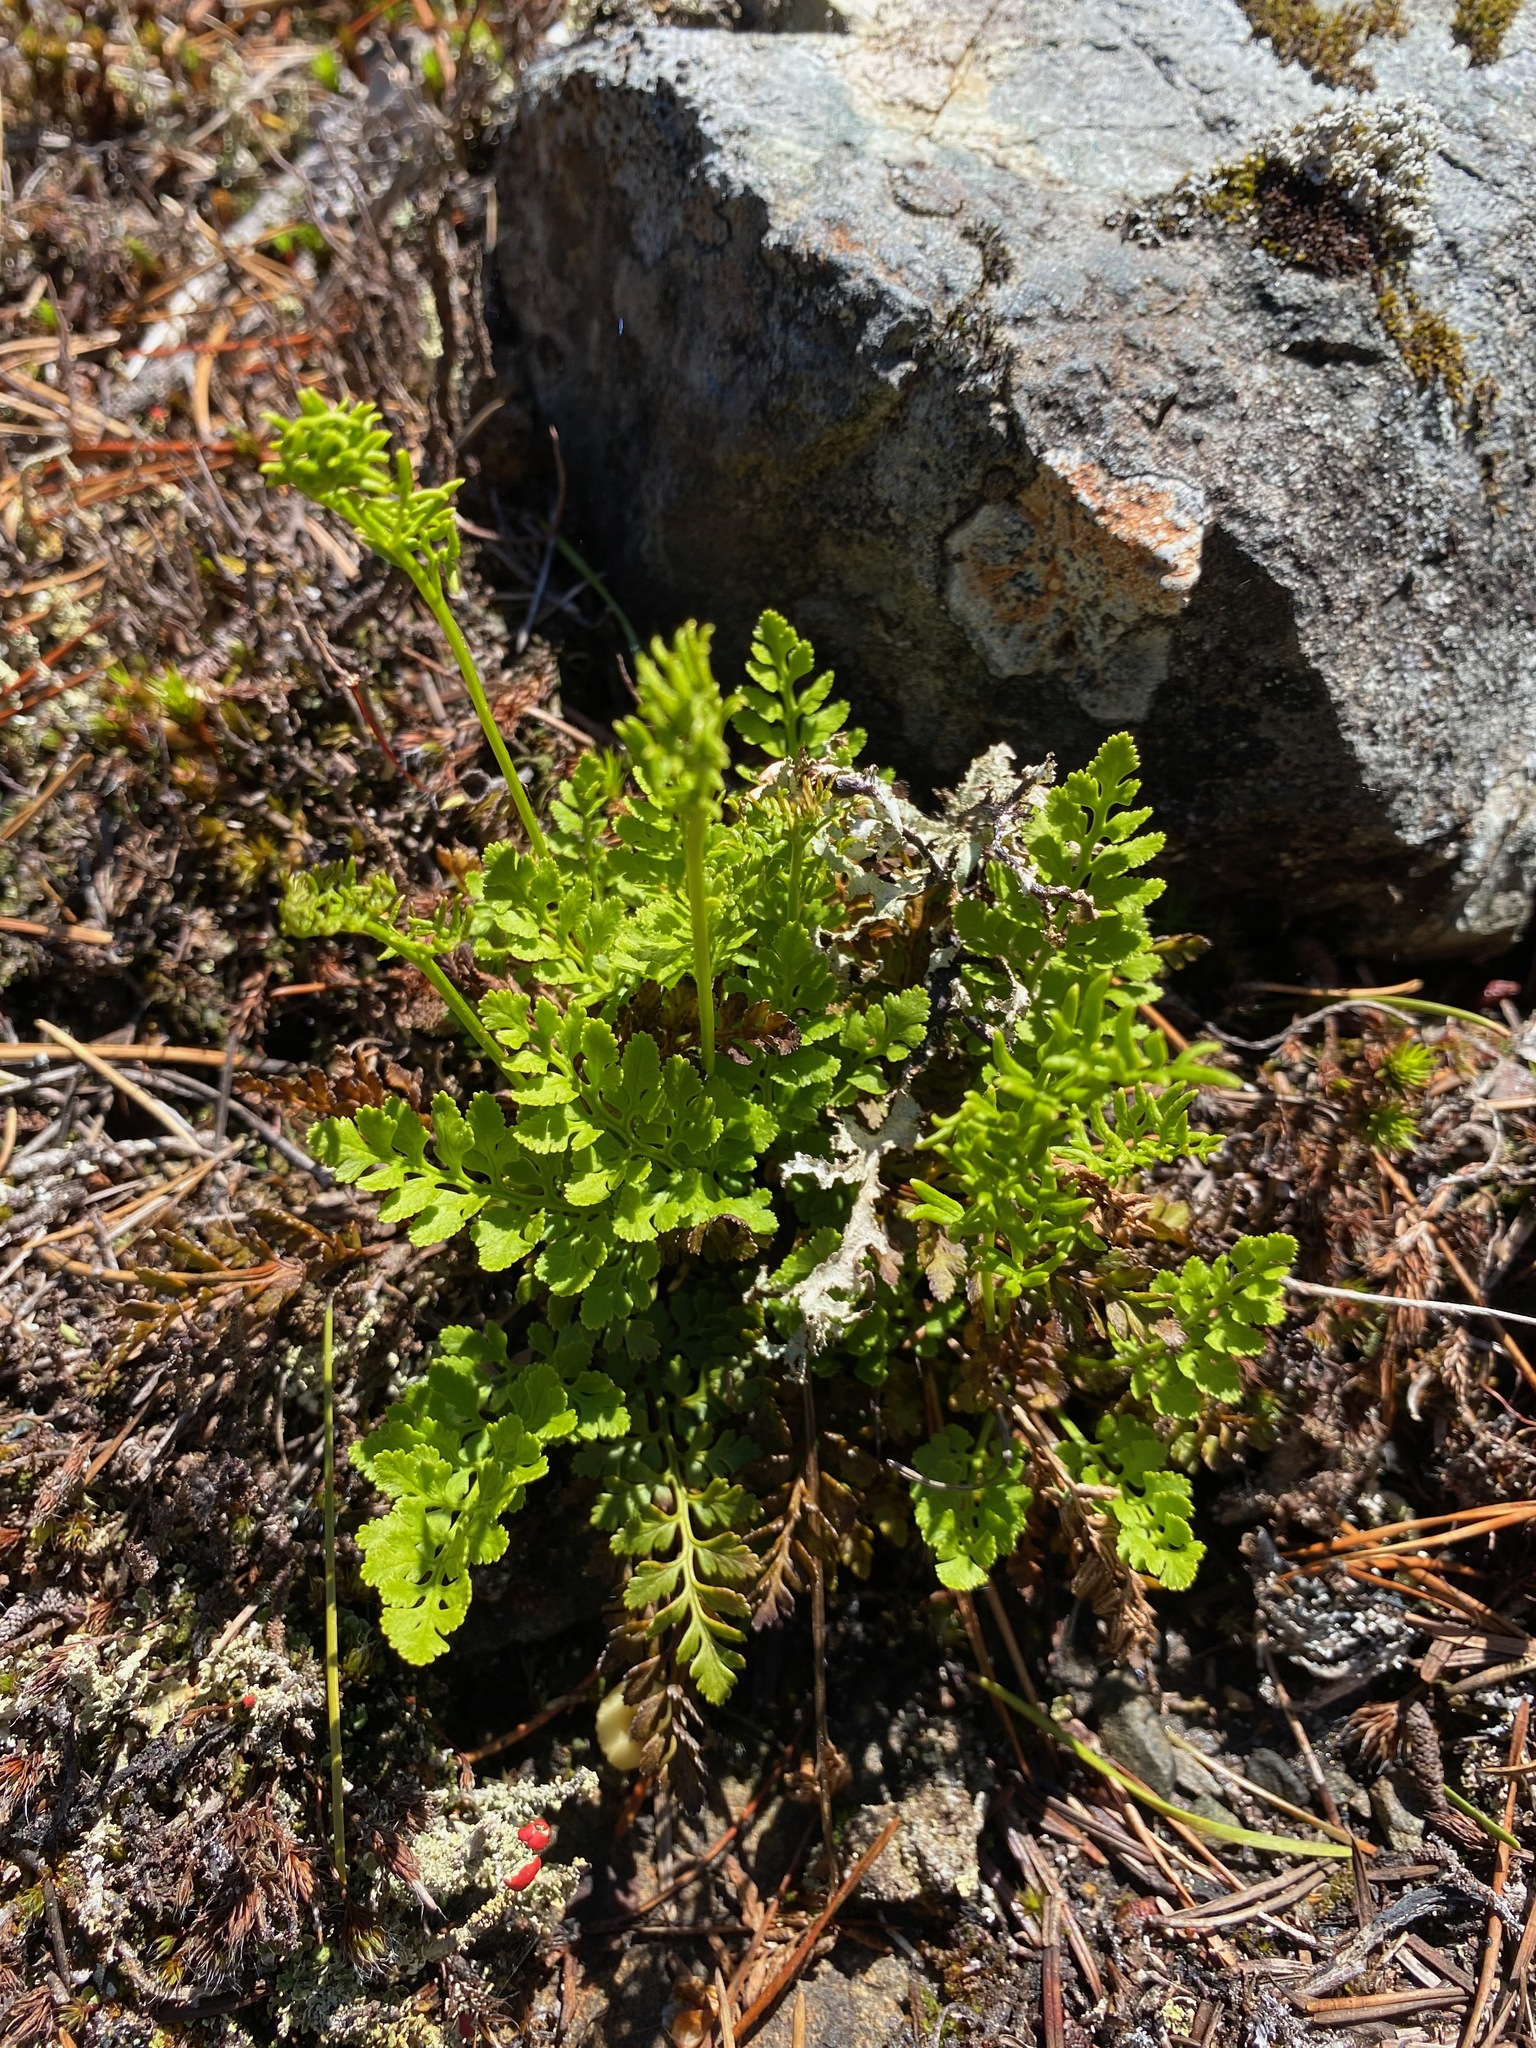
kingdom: Plantae
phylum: Tracheophyta
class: Polypodiopsida
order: Polypodiales
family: Pteridaceae
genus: Cryptogramma
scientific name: Cryptogramma acrostichoides
